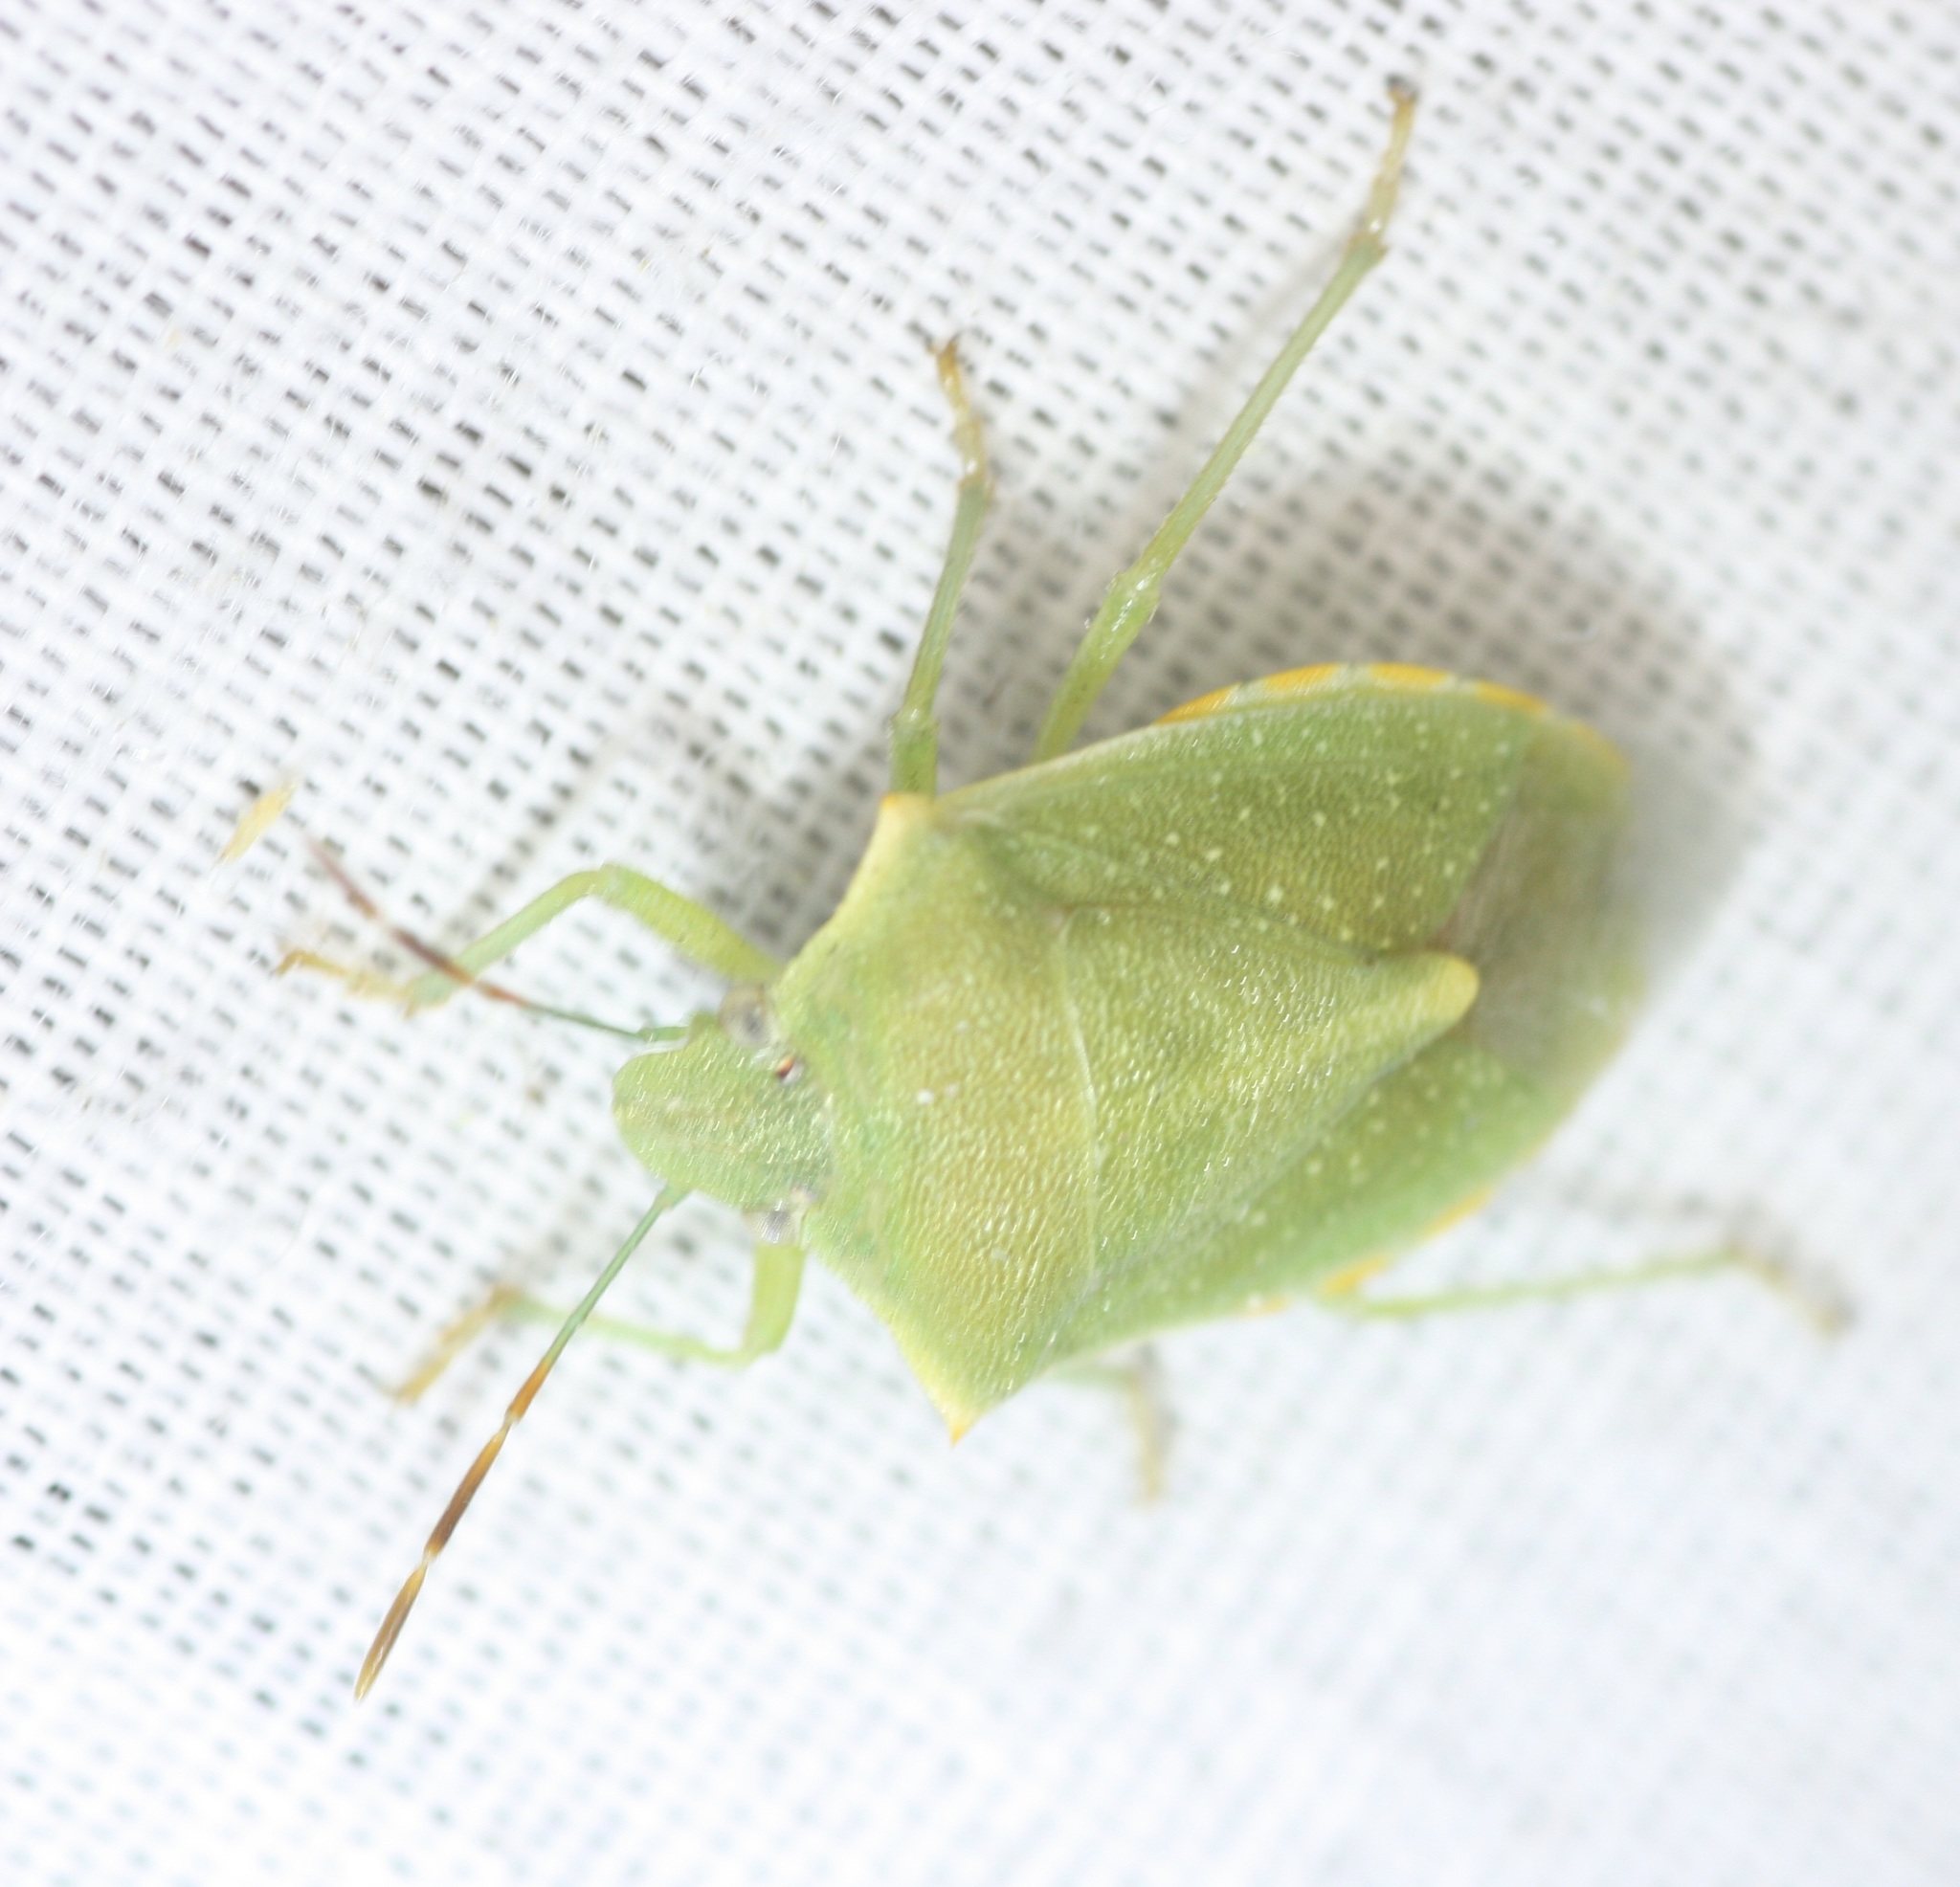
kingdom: Animalia
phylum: Arthropoda
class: Insecta
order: Hemiptera
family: Pentatomidae
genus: Thyanta
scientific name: Thyanta accerra
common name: Stink bug
